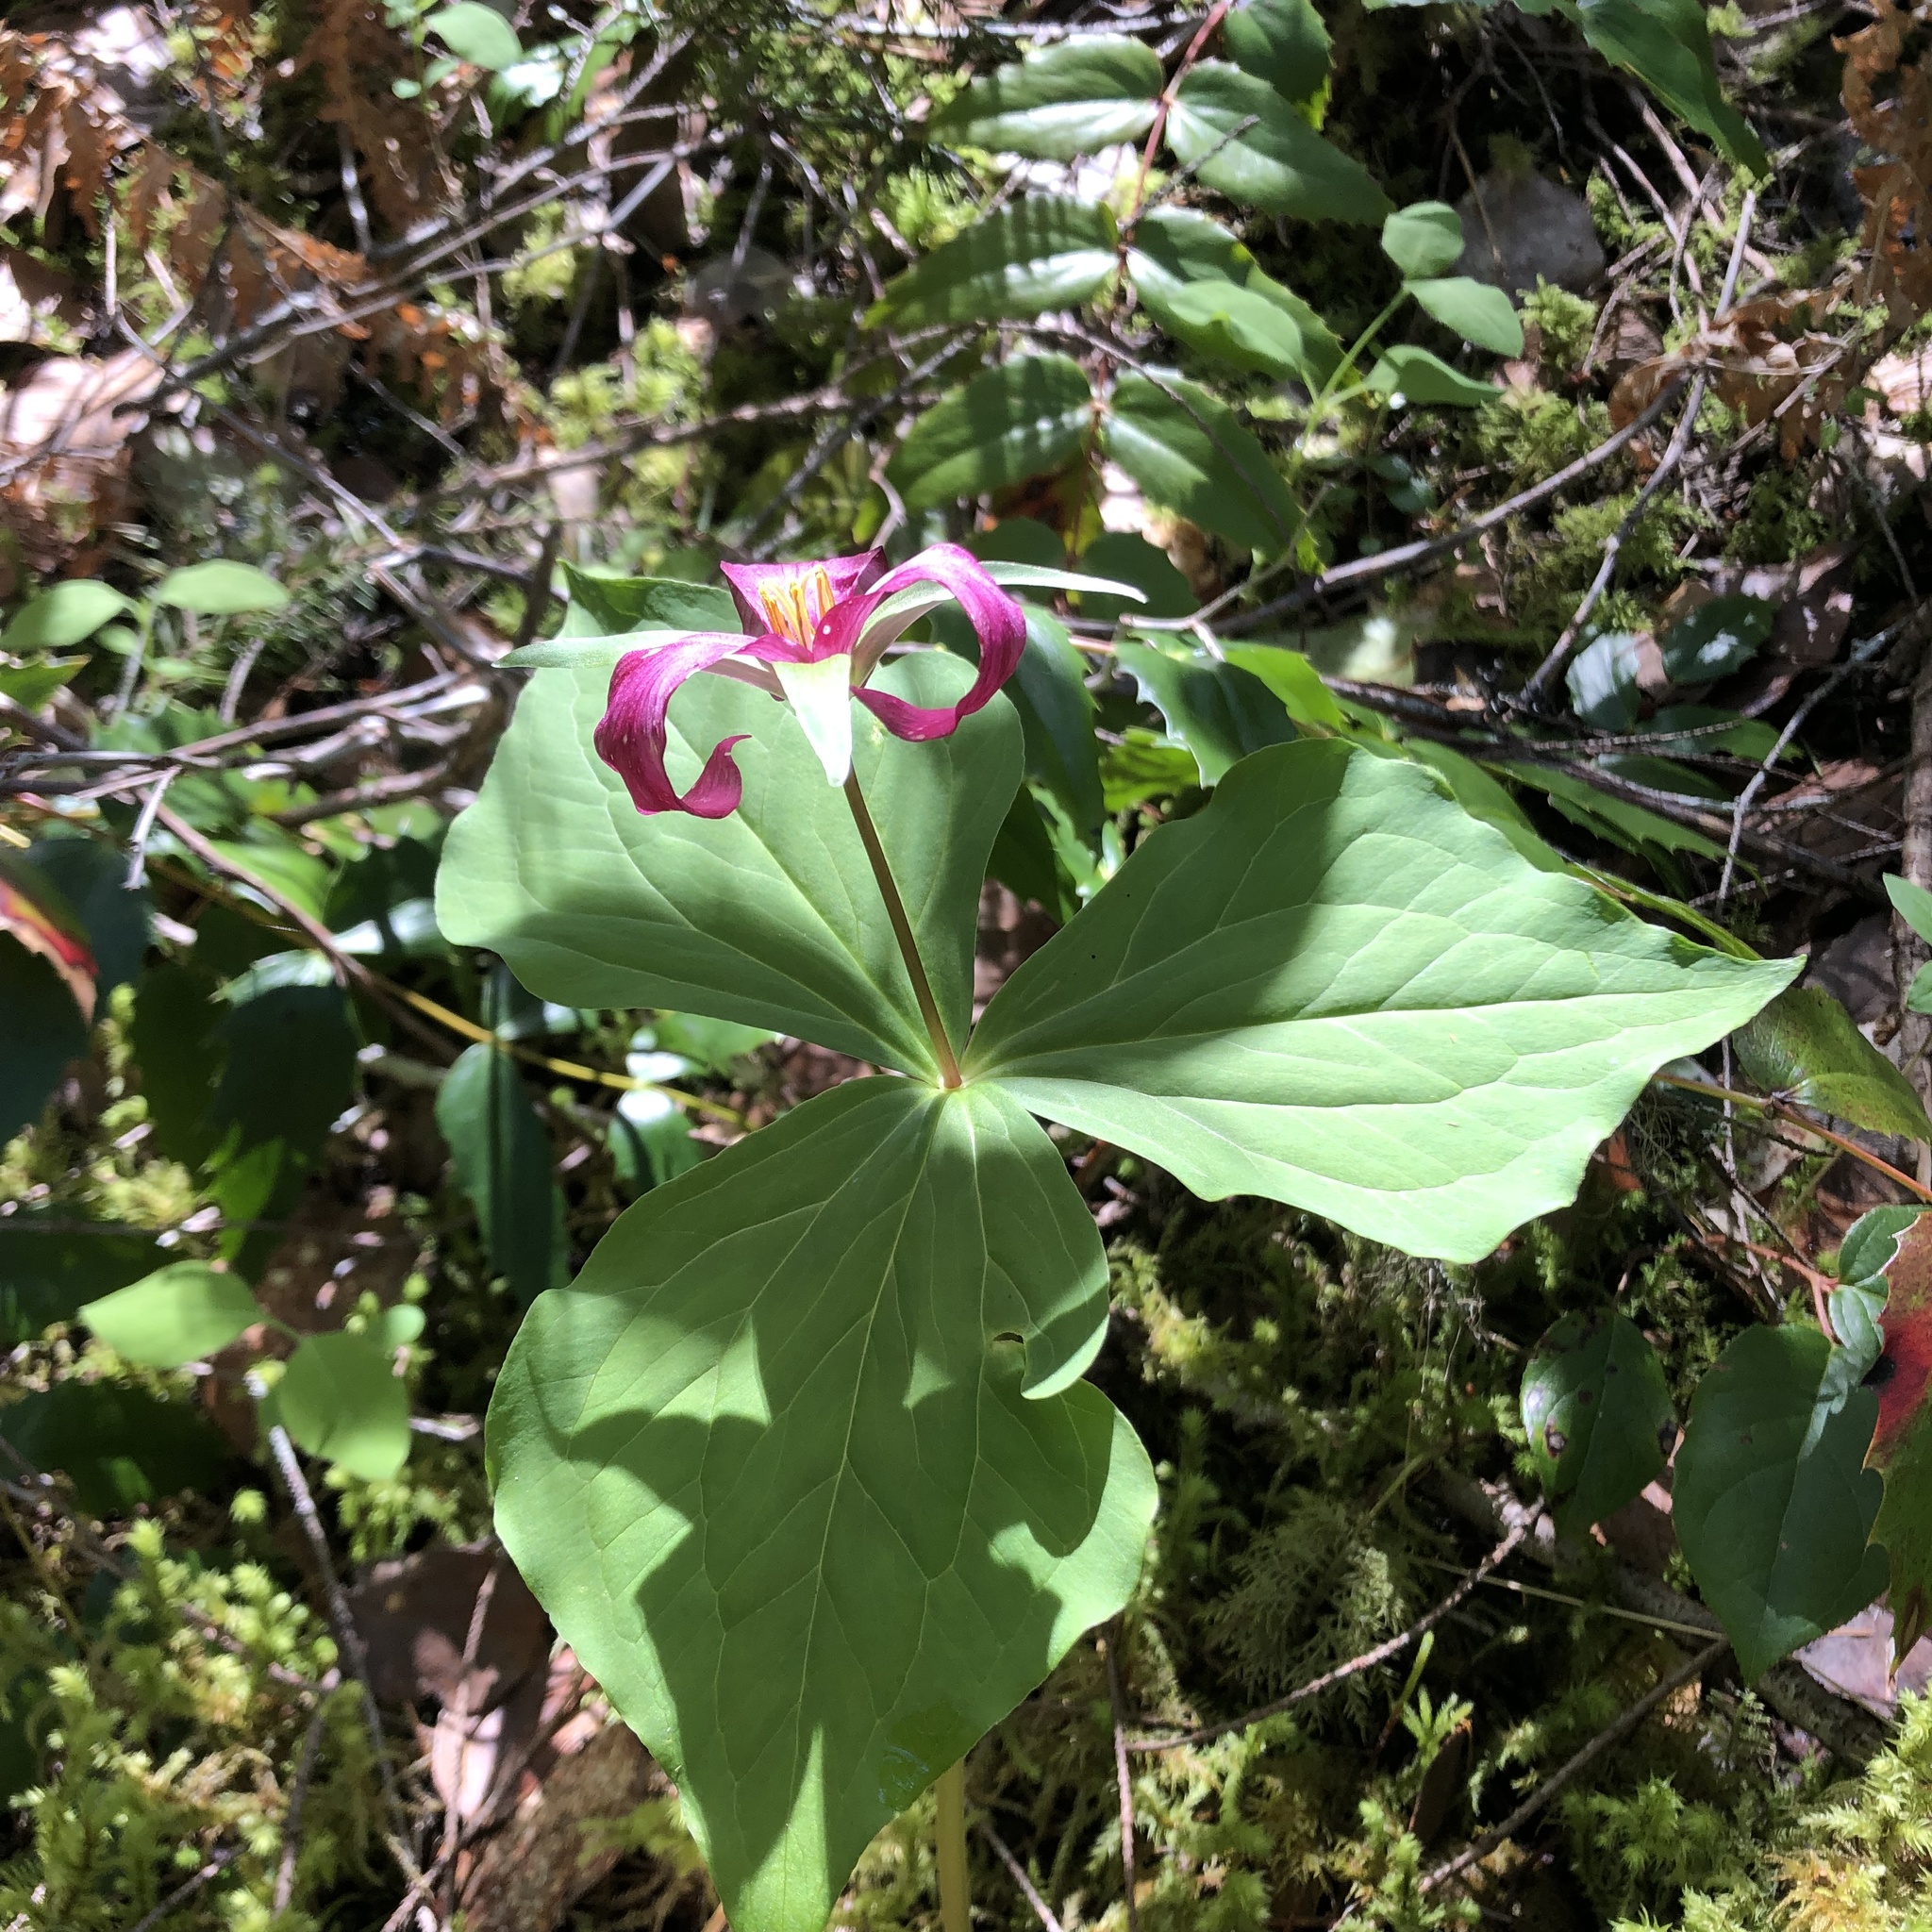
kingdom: Plantae
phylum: Tracheophyta
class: Liliopsida
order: Liliales
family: Melanthiaceae
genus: Trillium
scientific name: Trillium ovatum
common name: Pacific trillium
